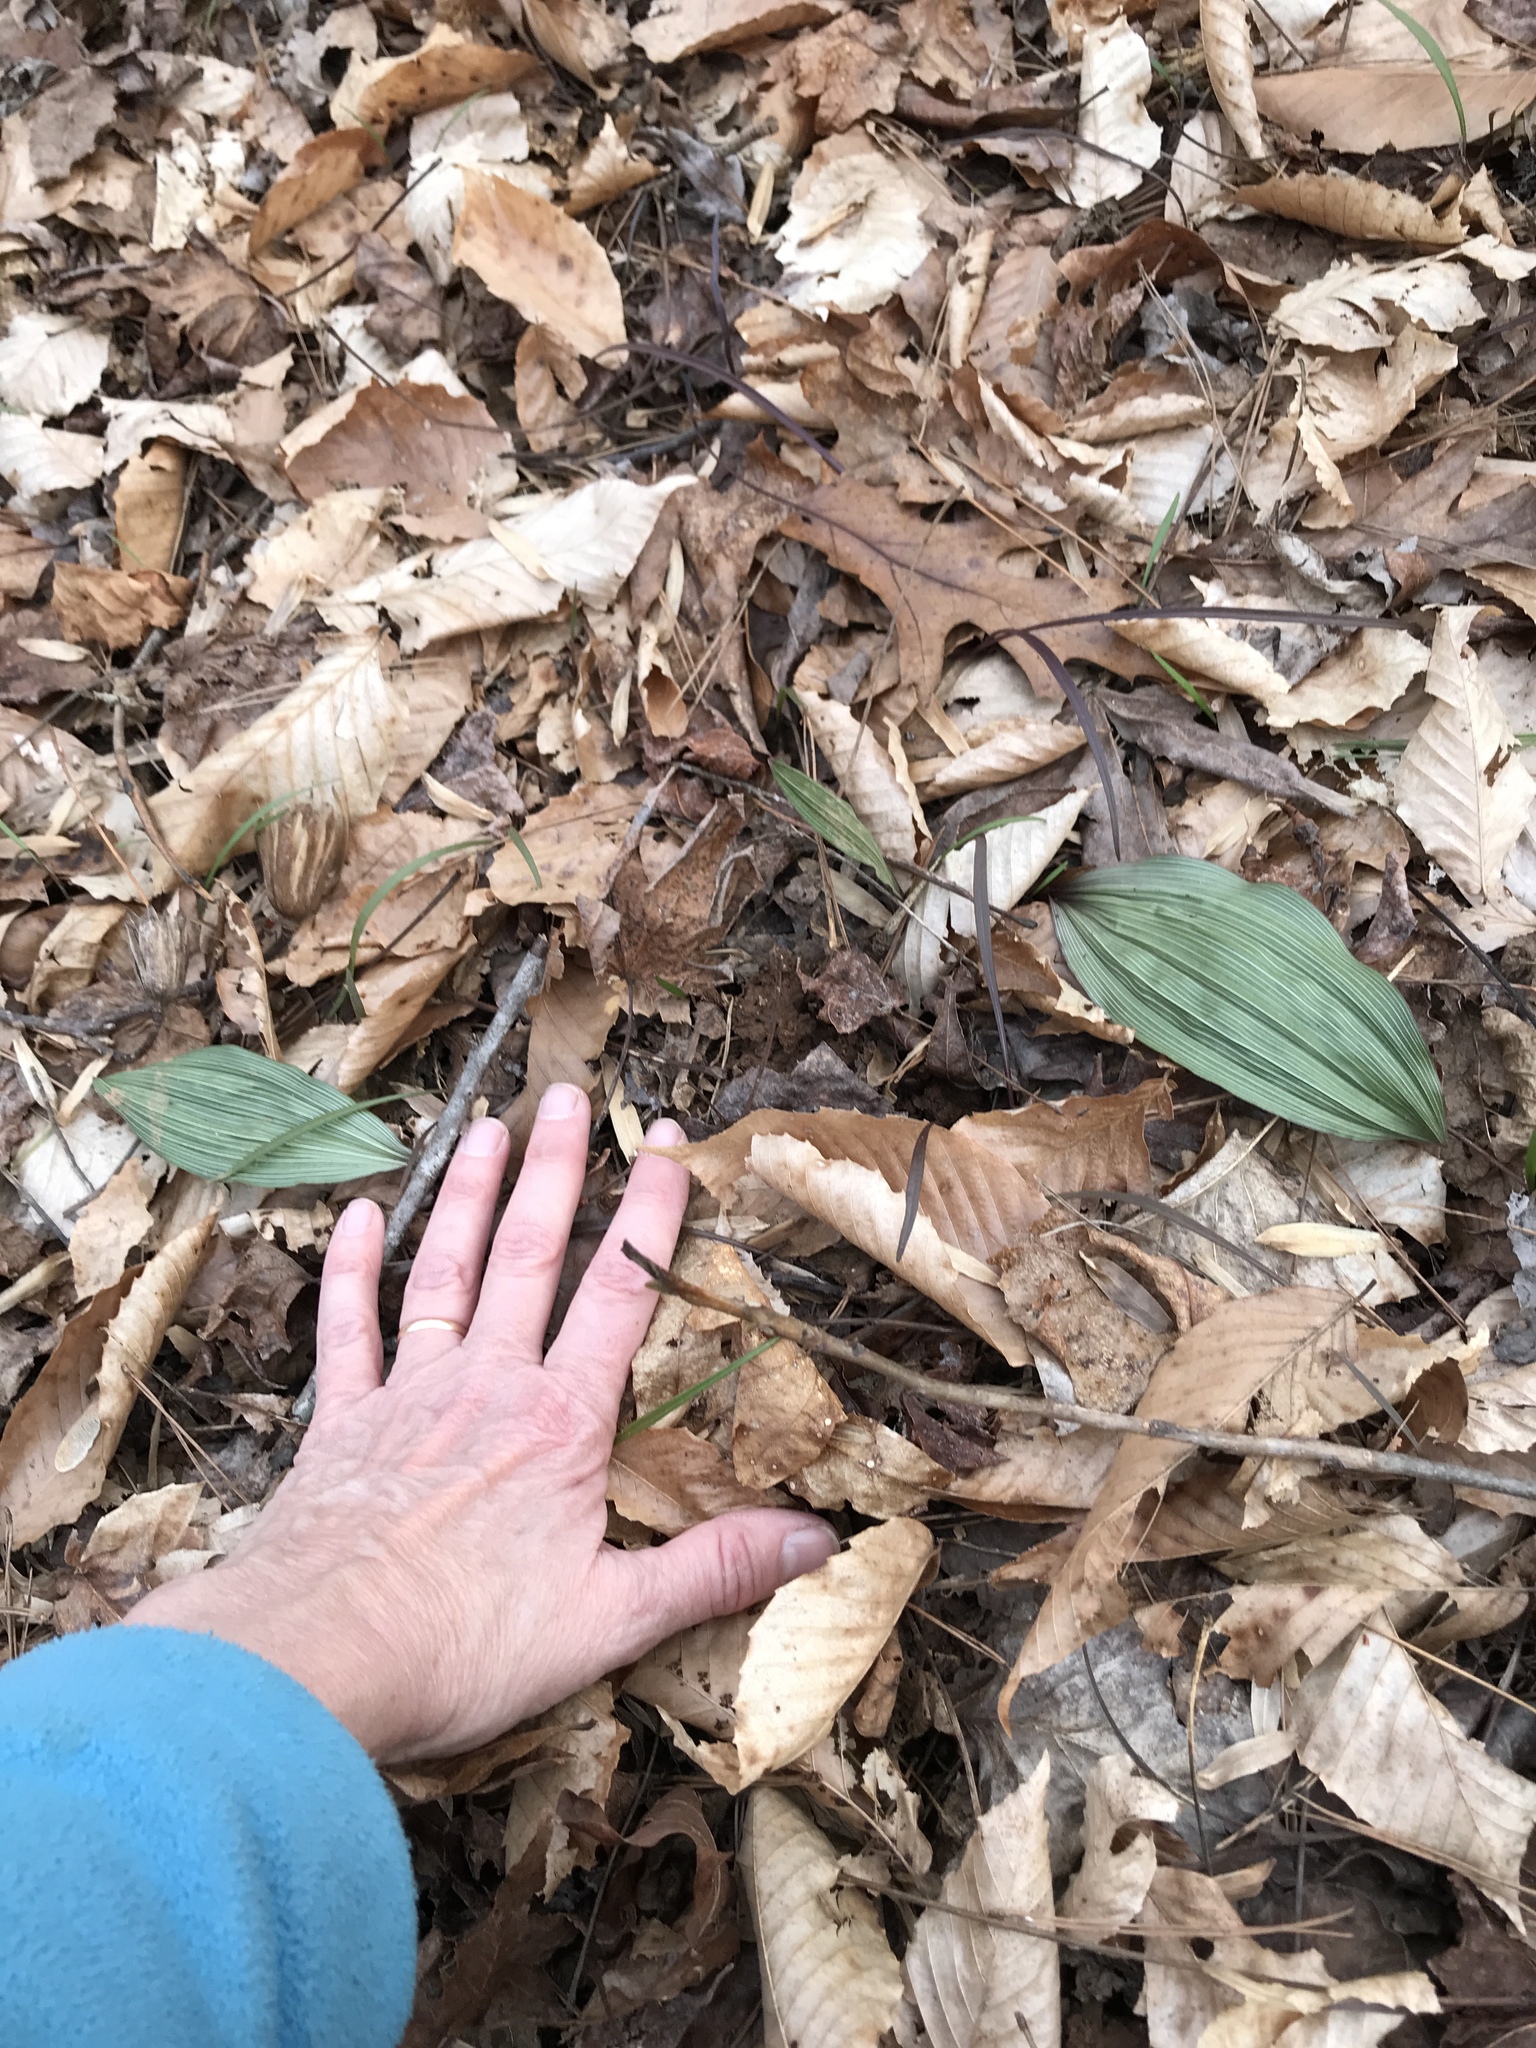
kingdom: Plantae
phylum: Tracheophyta
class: Liliopsida
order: Asparagales
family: Orchidaceae
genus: Aplectrum
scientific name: Aplectrum hyemale
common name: Adam-and-eve
